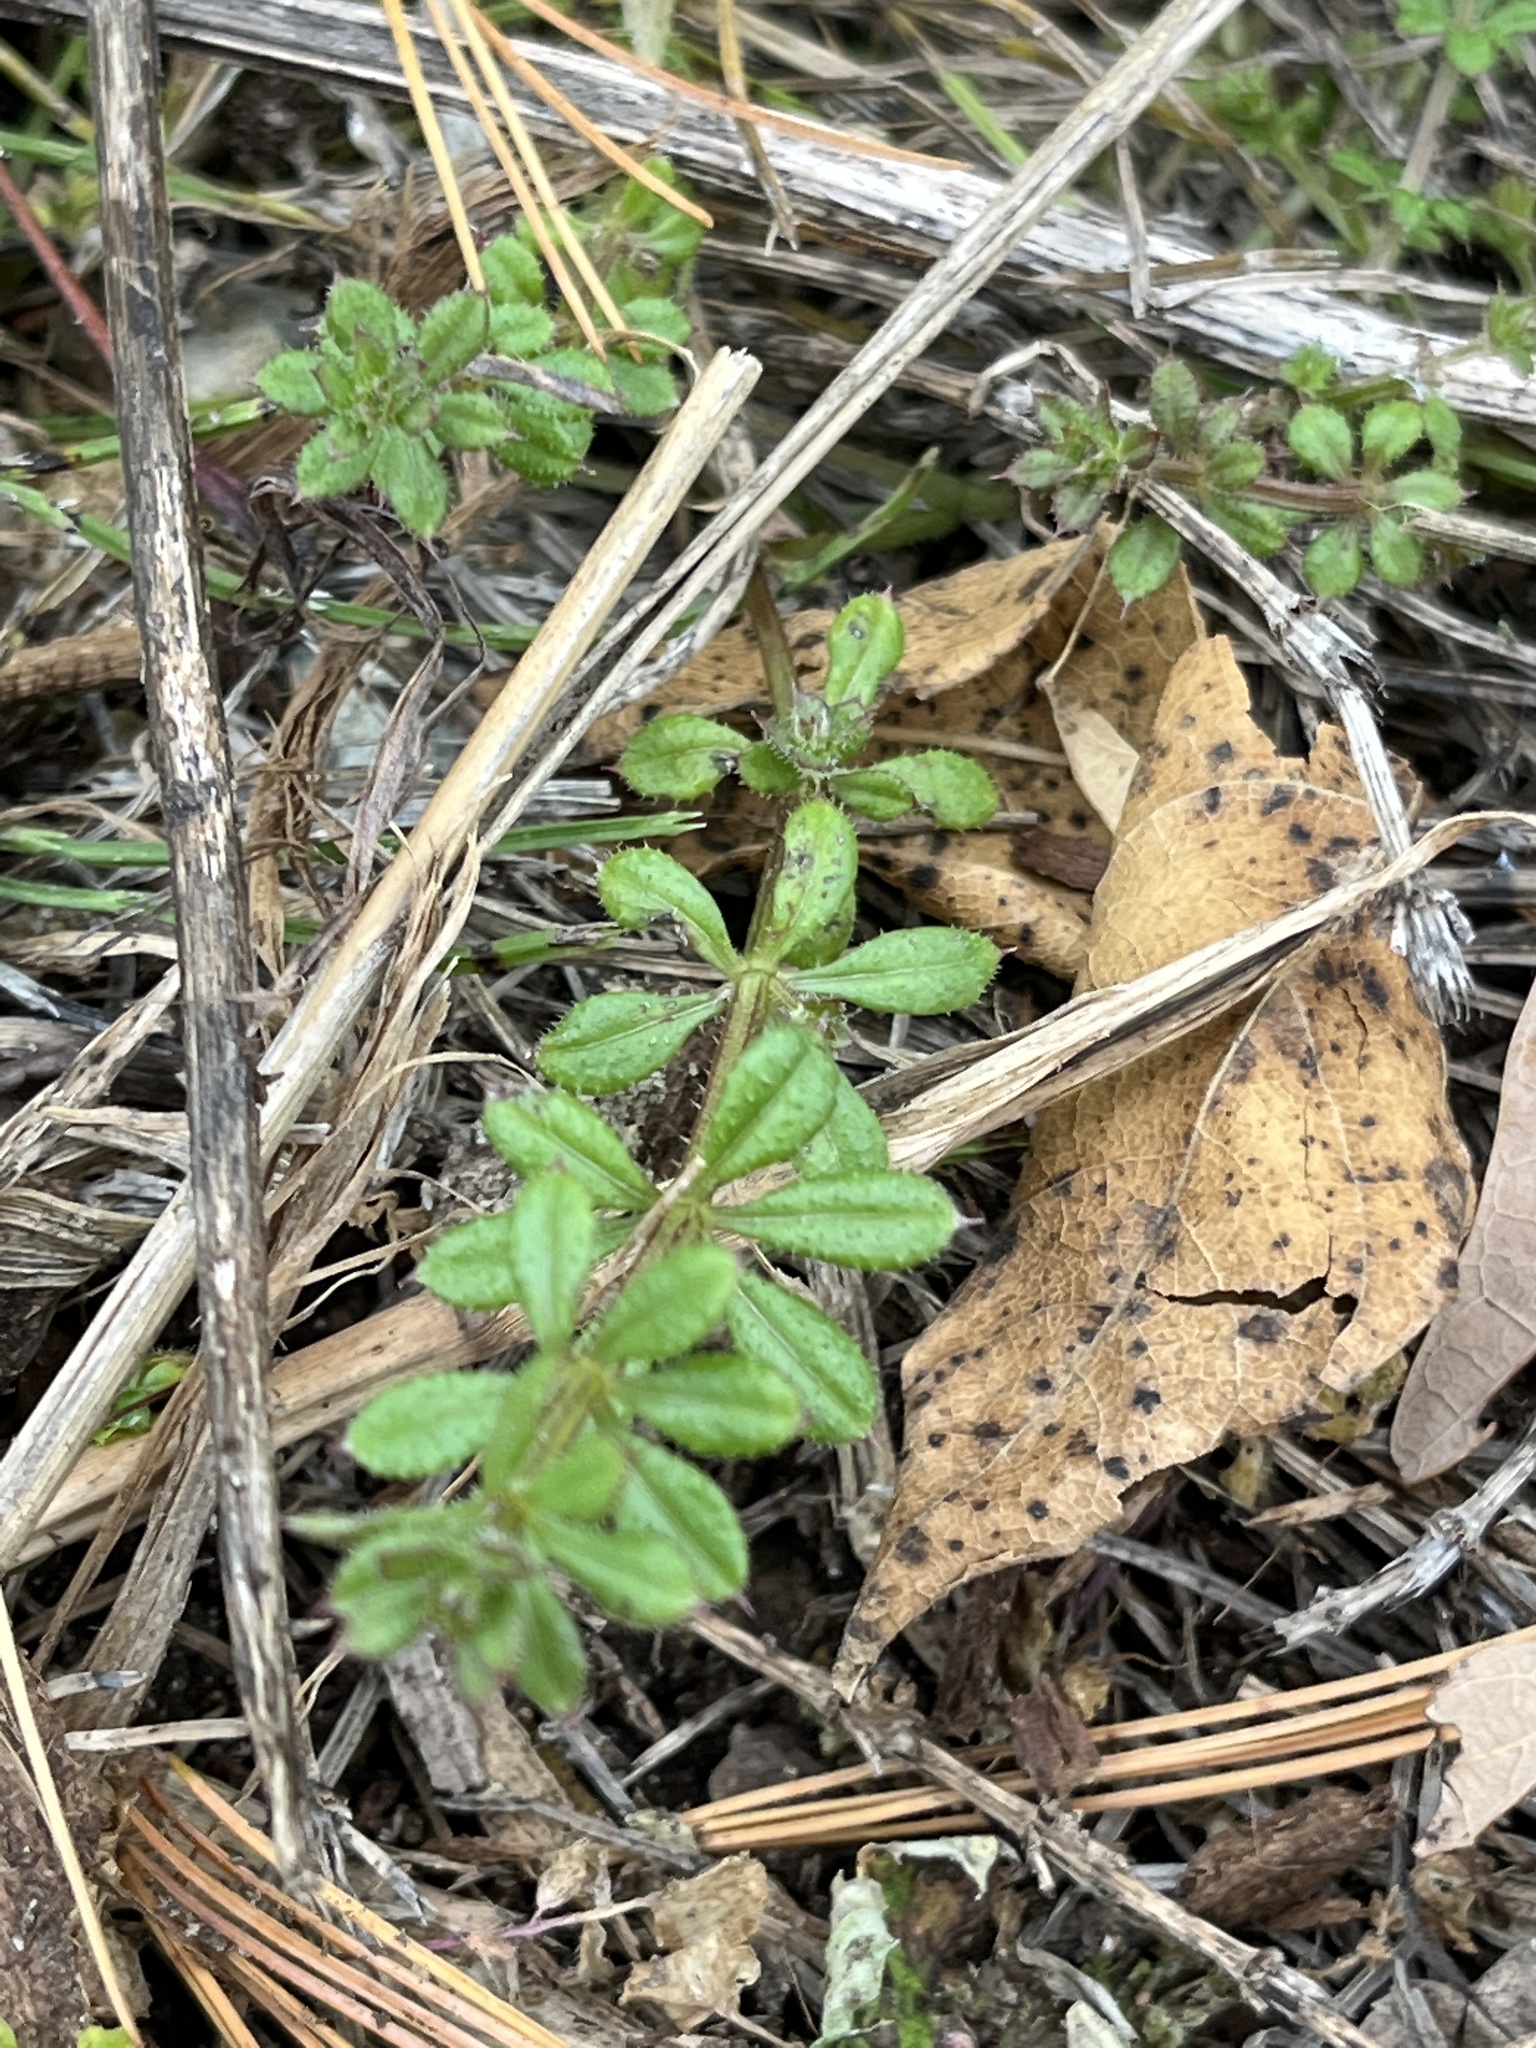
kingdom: Plantae
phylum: Tracheophyta
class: Magnoliopsida
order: Gentianales
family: Rubiaceae
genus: Galium
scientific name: Galium aparine
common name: Cleavers
